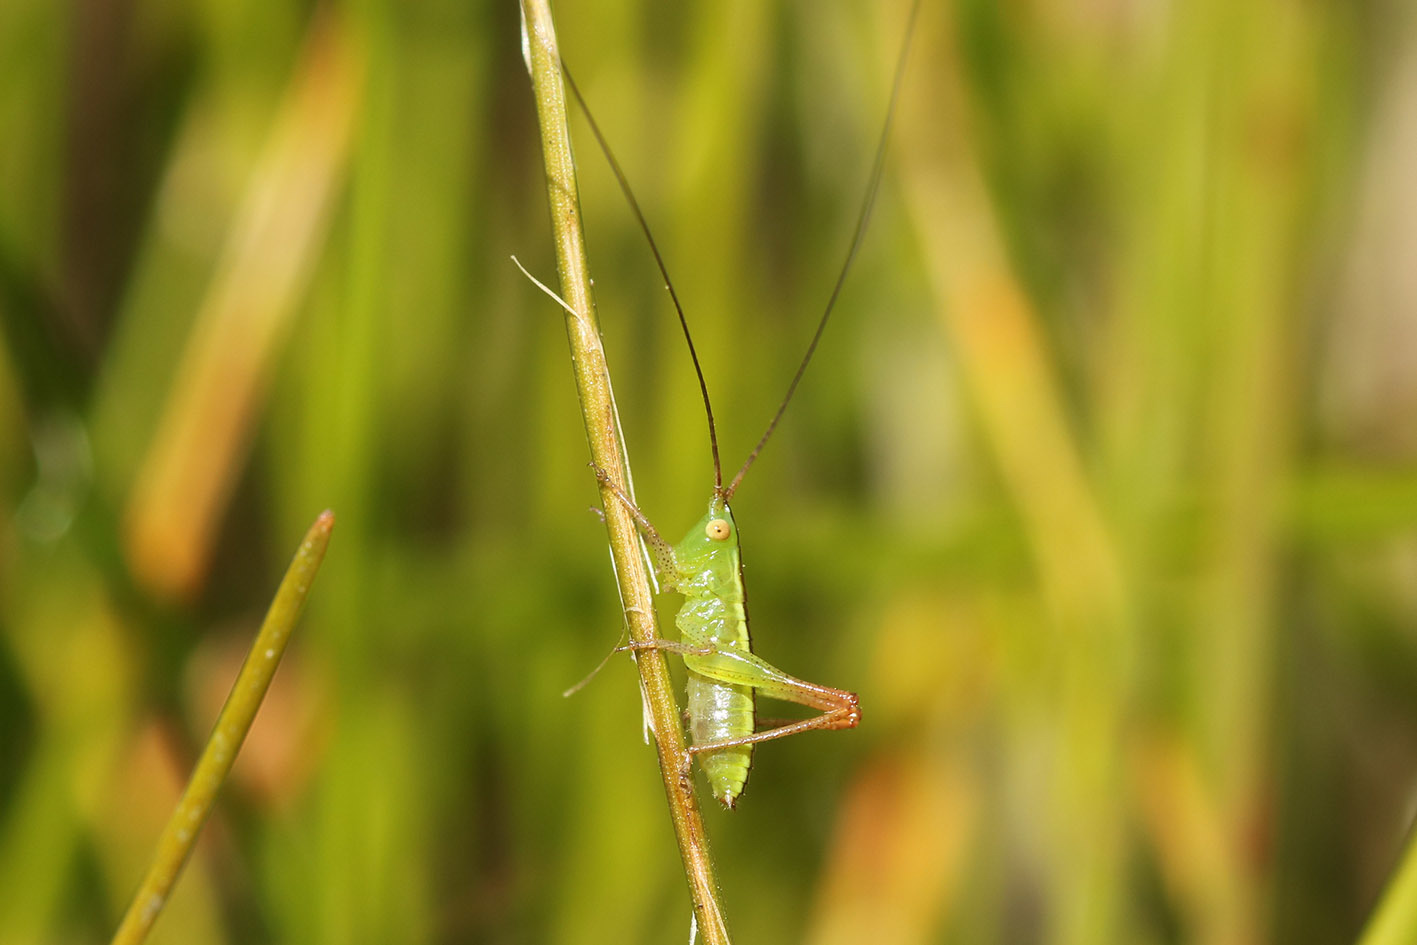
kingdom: Animalia
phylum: Arthropoda
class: Insecta
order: Orthoptera
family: Tettigoniidae
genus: Conocephalus
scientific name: Conocephalus longipes
